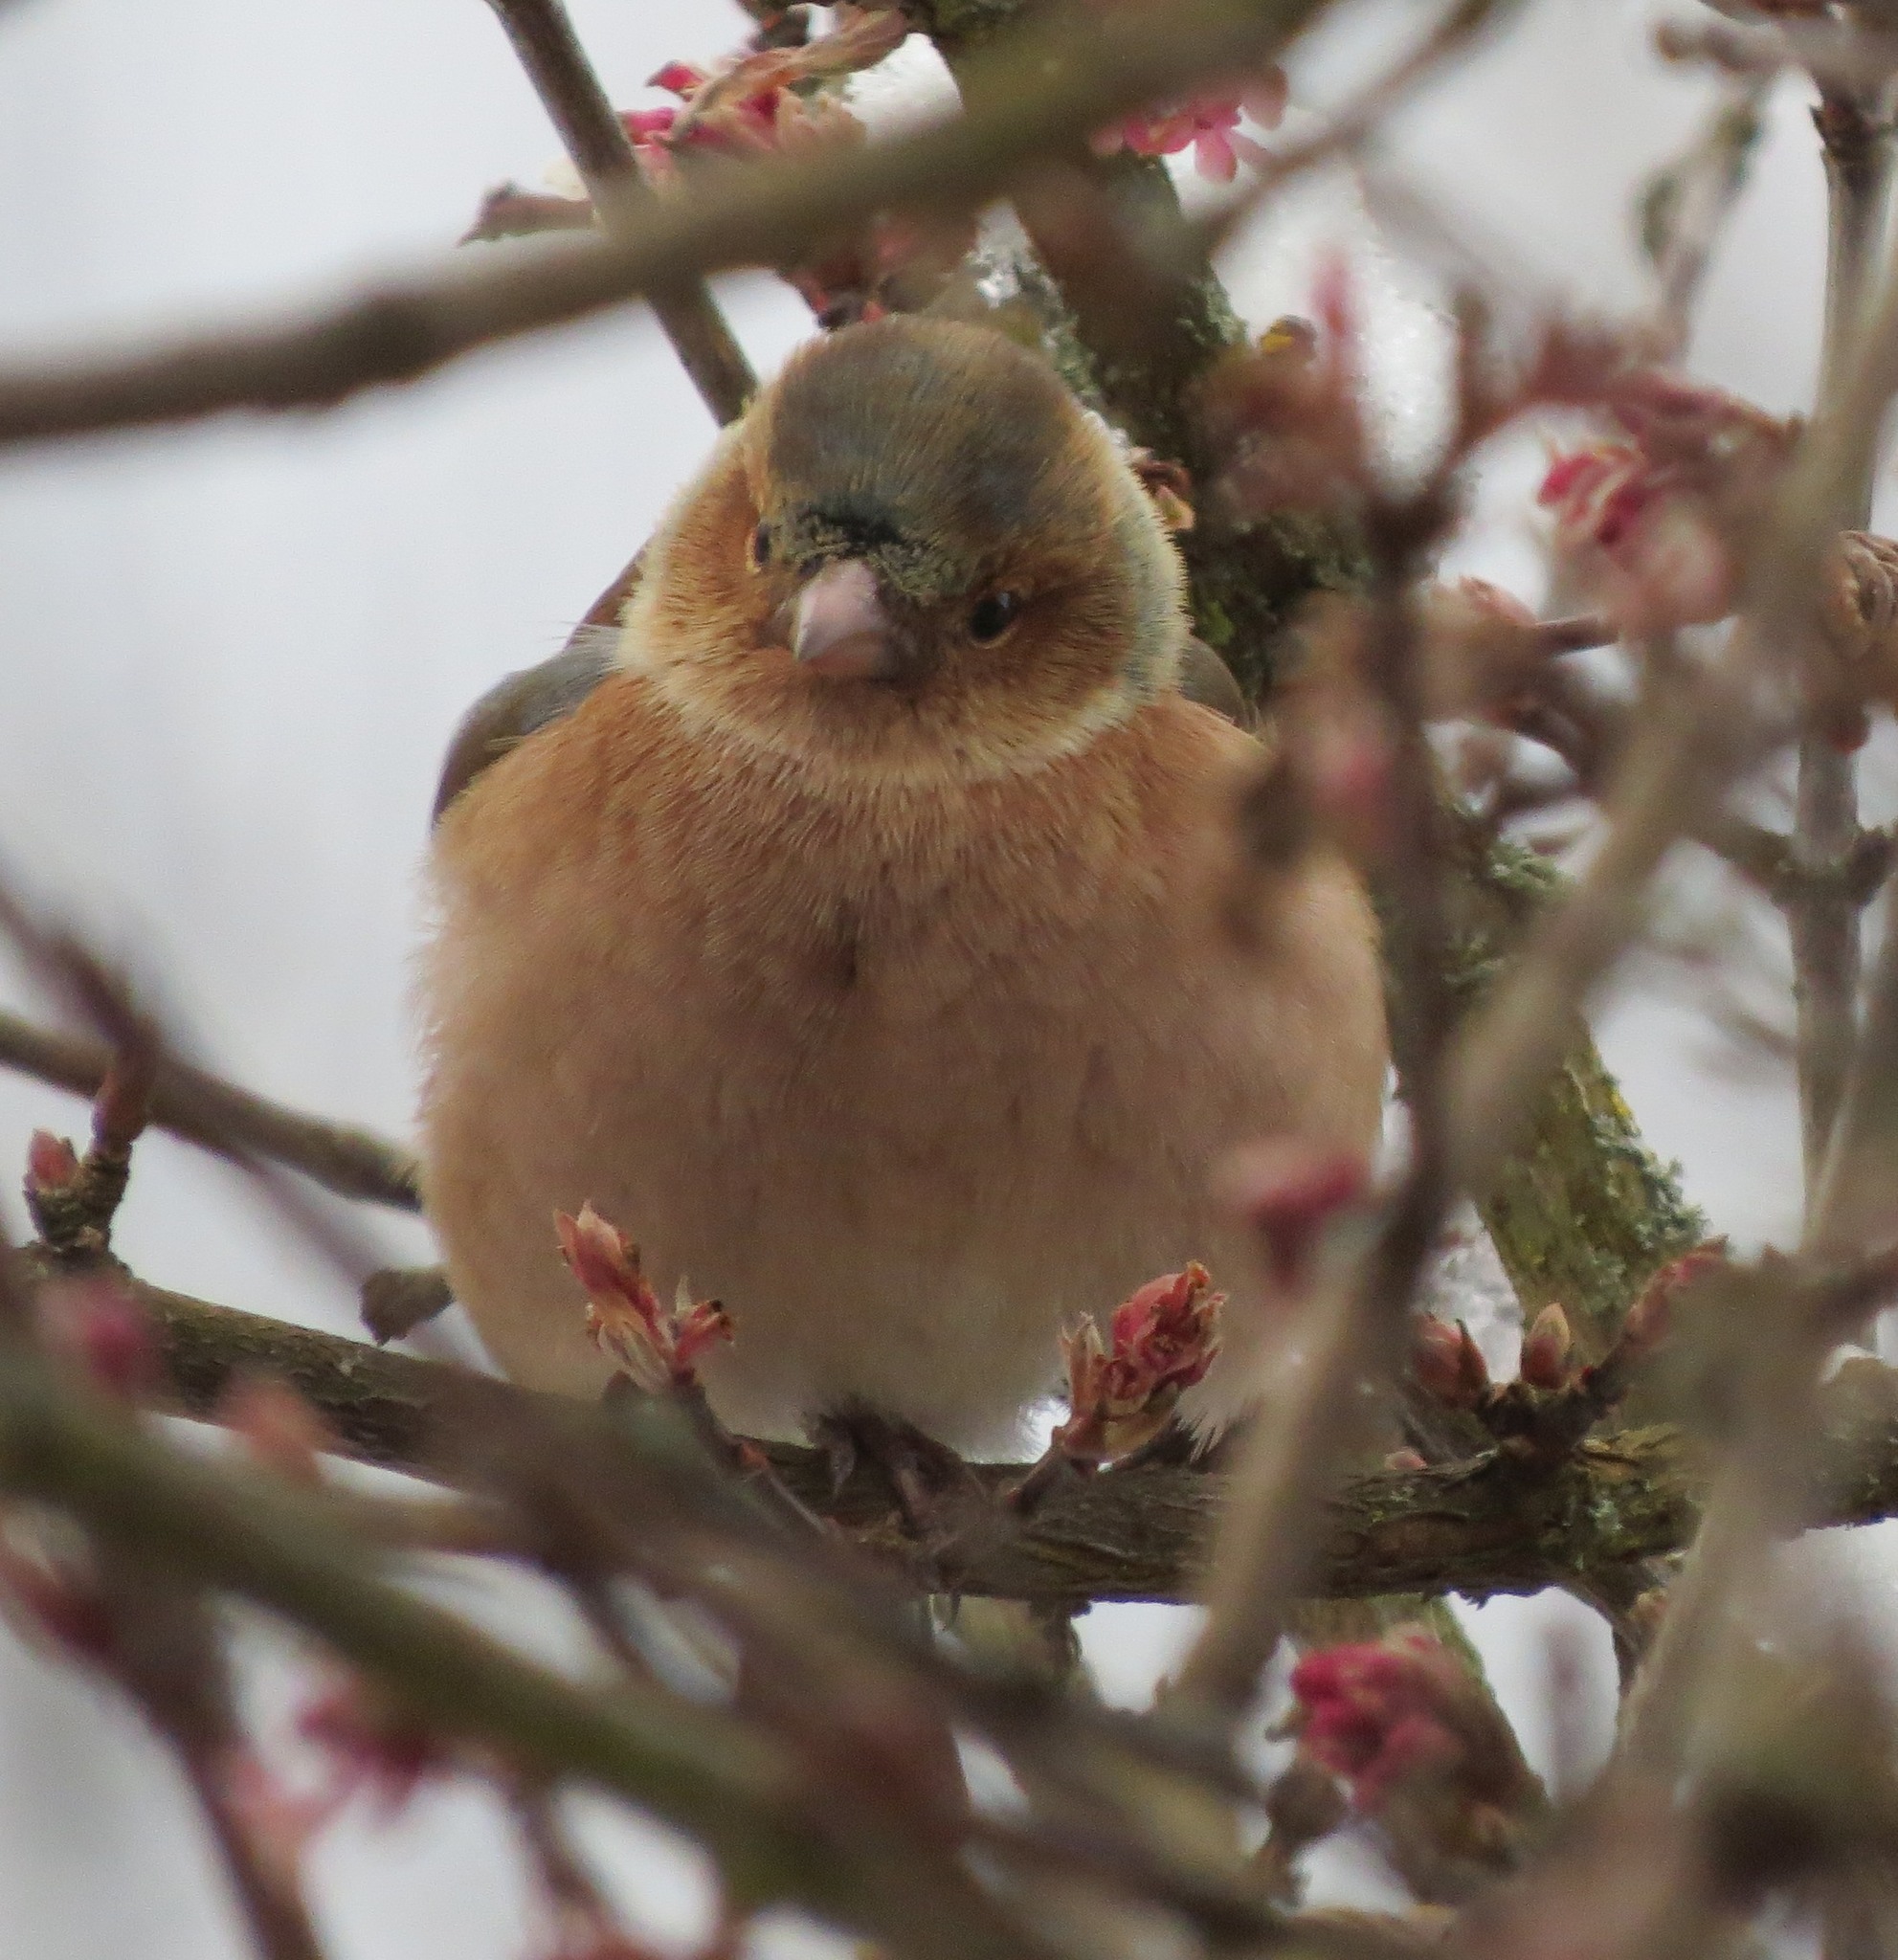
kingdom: Animalia
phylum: Chordata
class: Aves
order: Passeriformes
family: Fringillidae
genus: Fringilla
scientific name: Fringilla coelebs
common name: Common chaffinch
